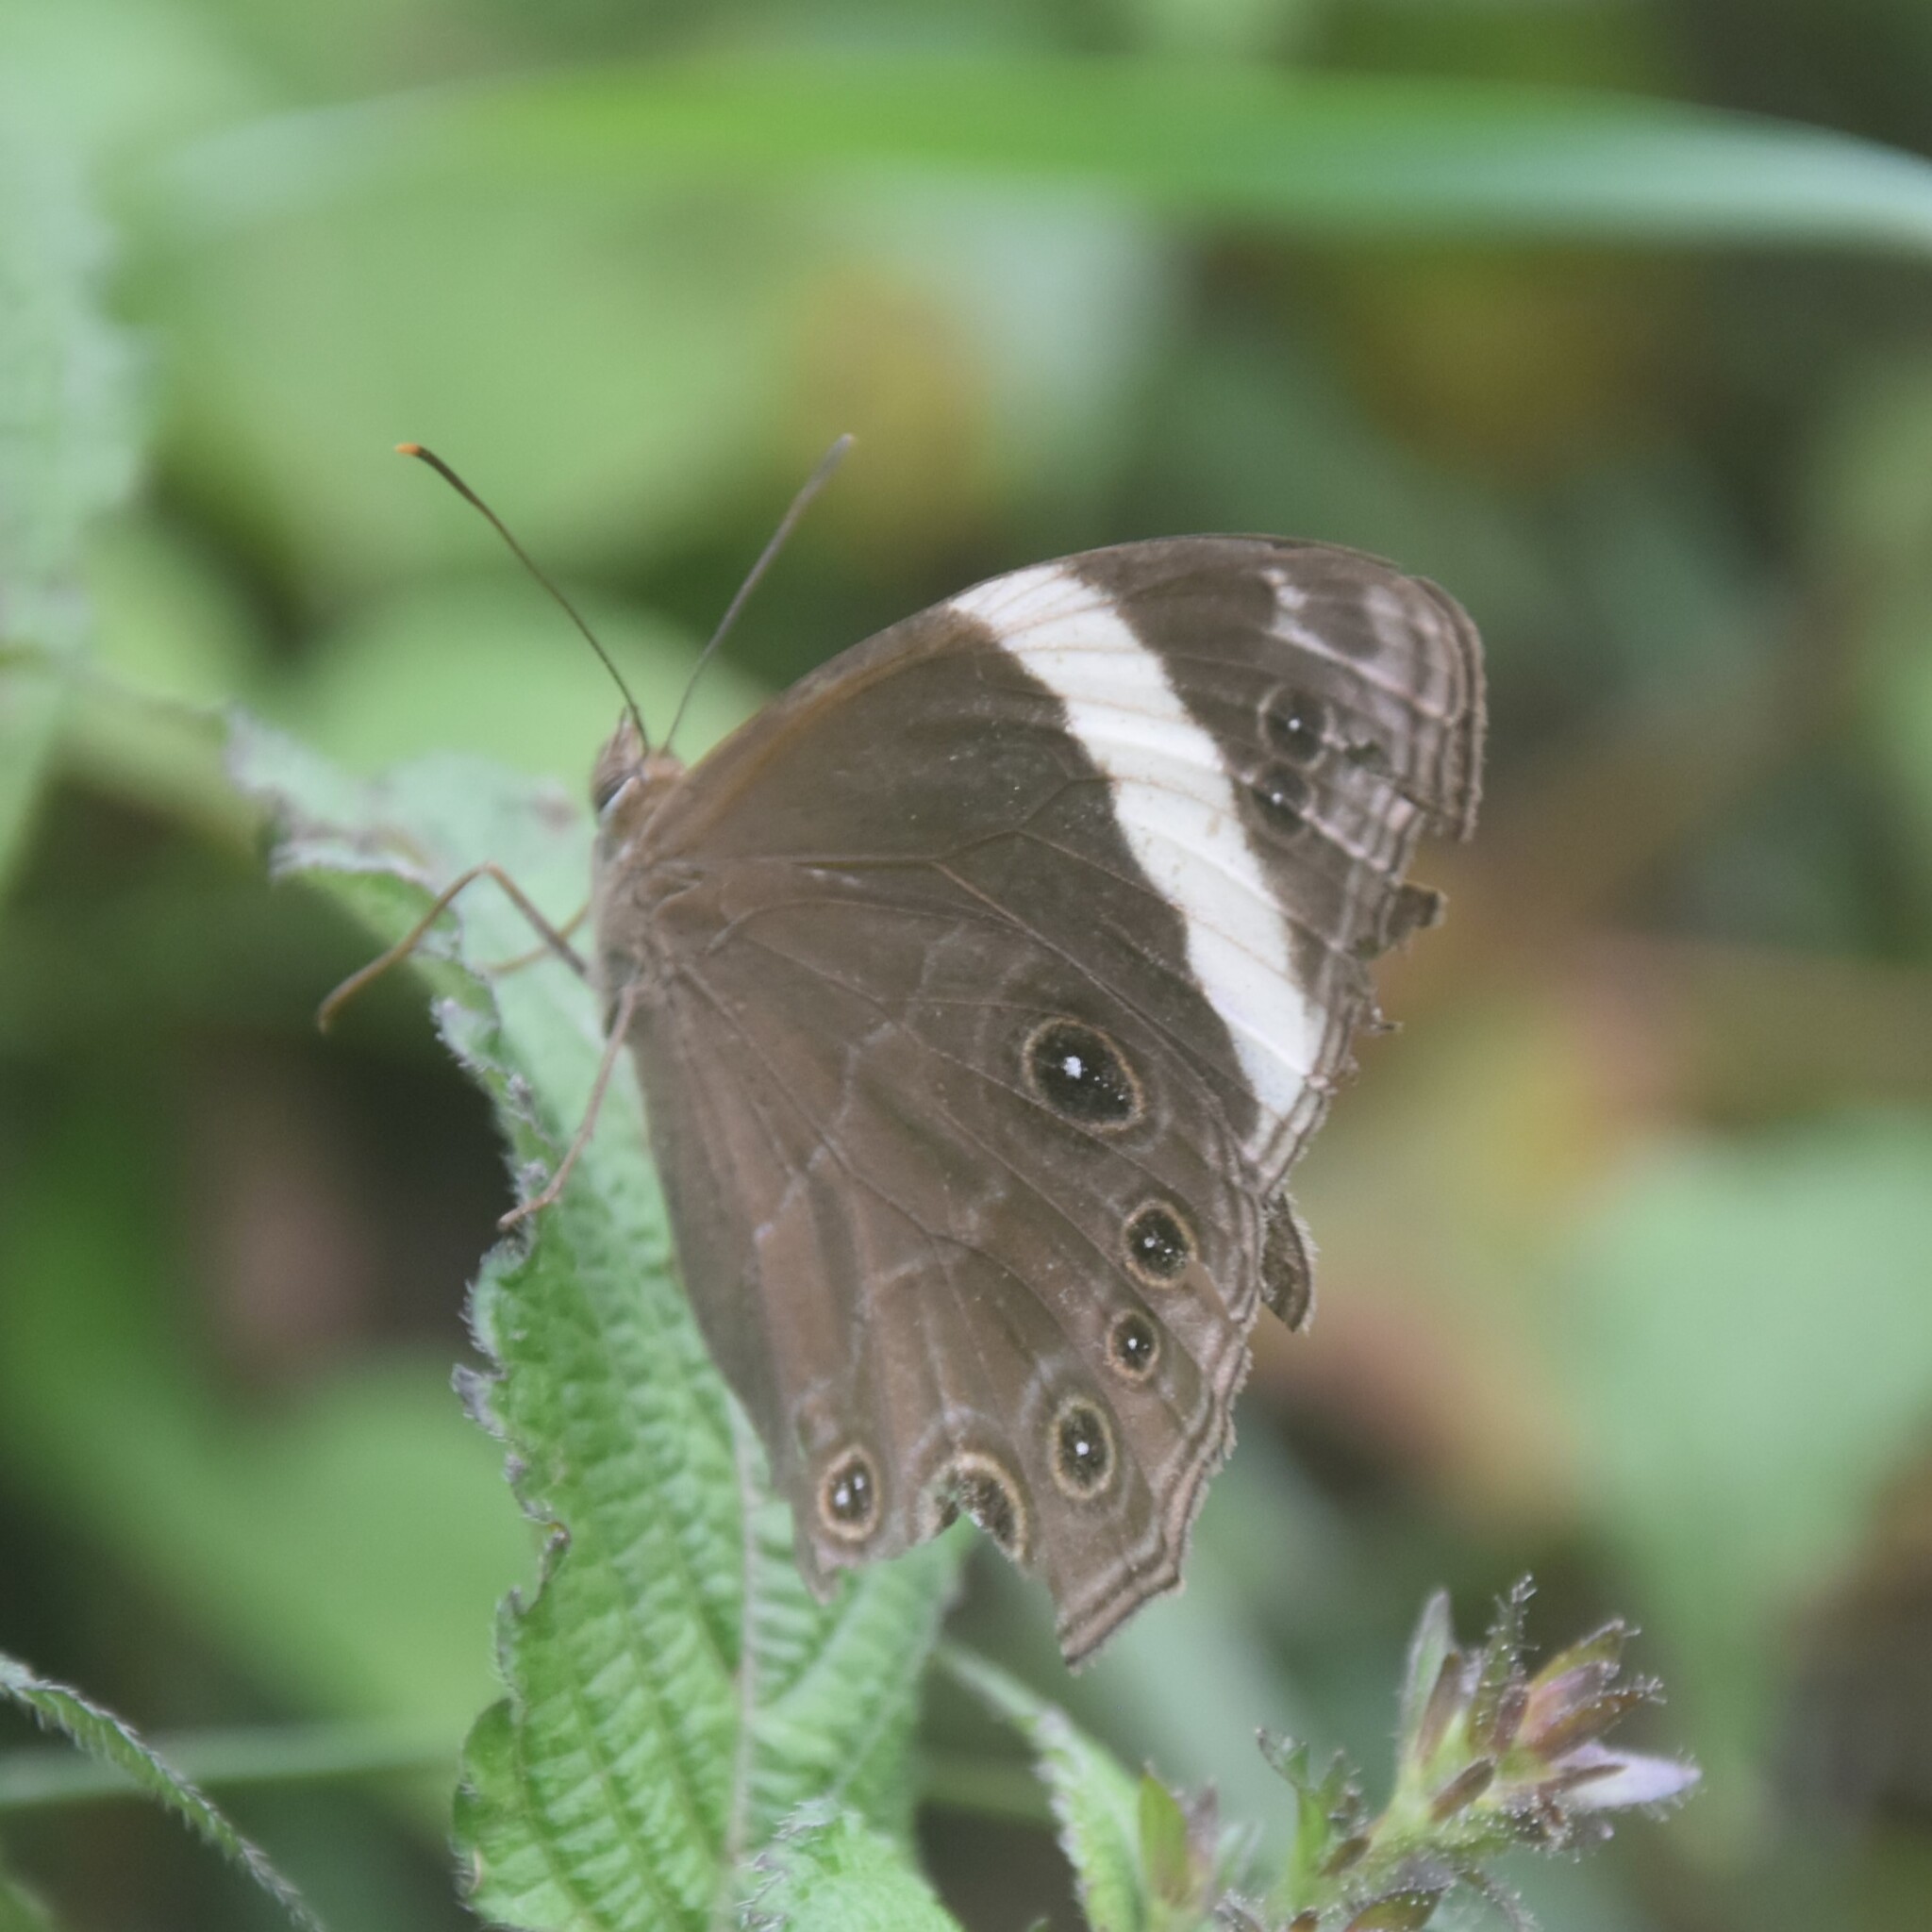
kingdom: Animalia
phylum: Arthropoda
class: Insecta
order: Lepidoptera
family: Nymphalidae
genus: Lethe
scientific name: Lethe verma
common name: Straight-banded treebrown
